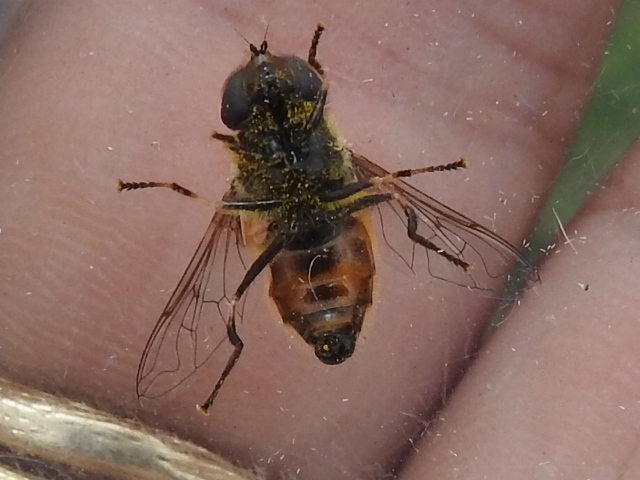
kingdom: Animalia
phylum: Arthropoda
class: Insecta
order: Diptera
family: Syrphidae
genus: Eristalis
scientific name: Eristalis bellardii
